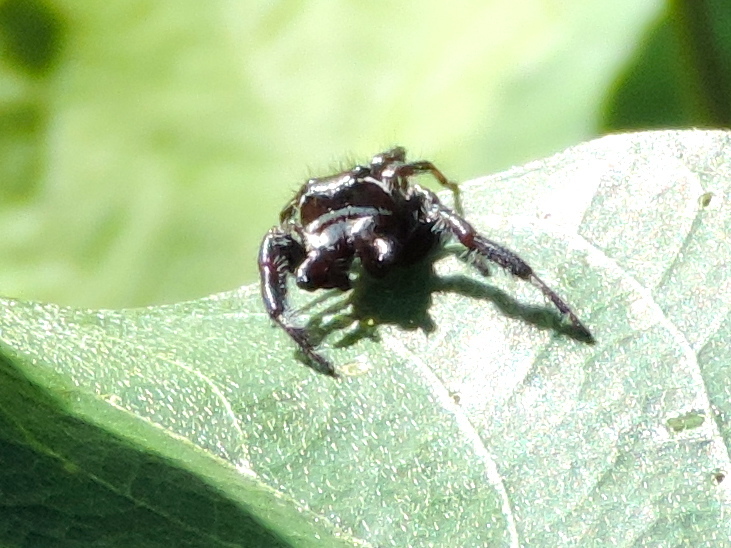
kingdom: Animalia
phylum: Arthropoda
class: Arachnida
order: Araneae
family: Salticidae
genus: Messua
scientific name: Messua
